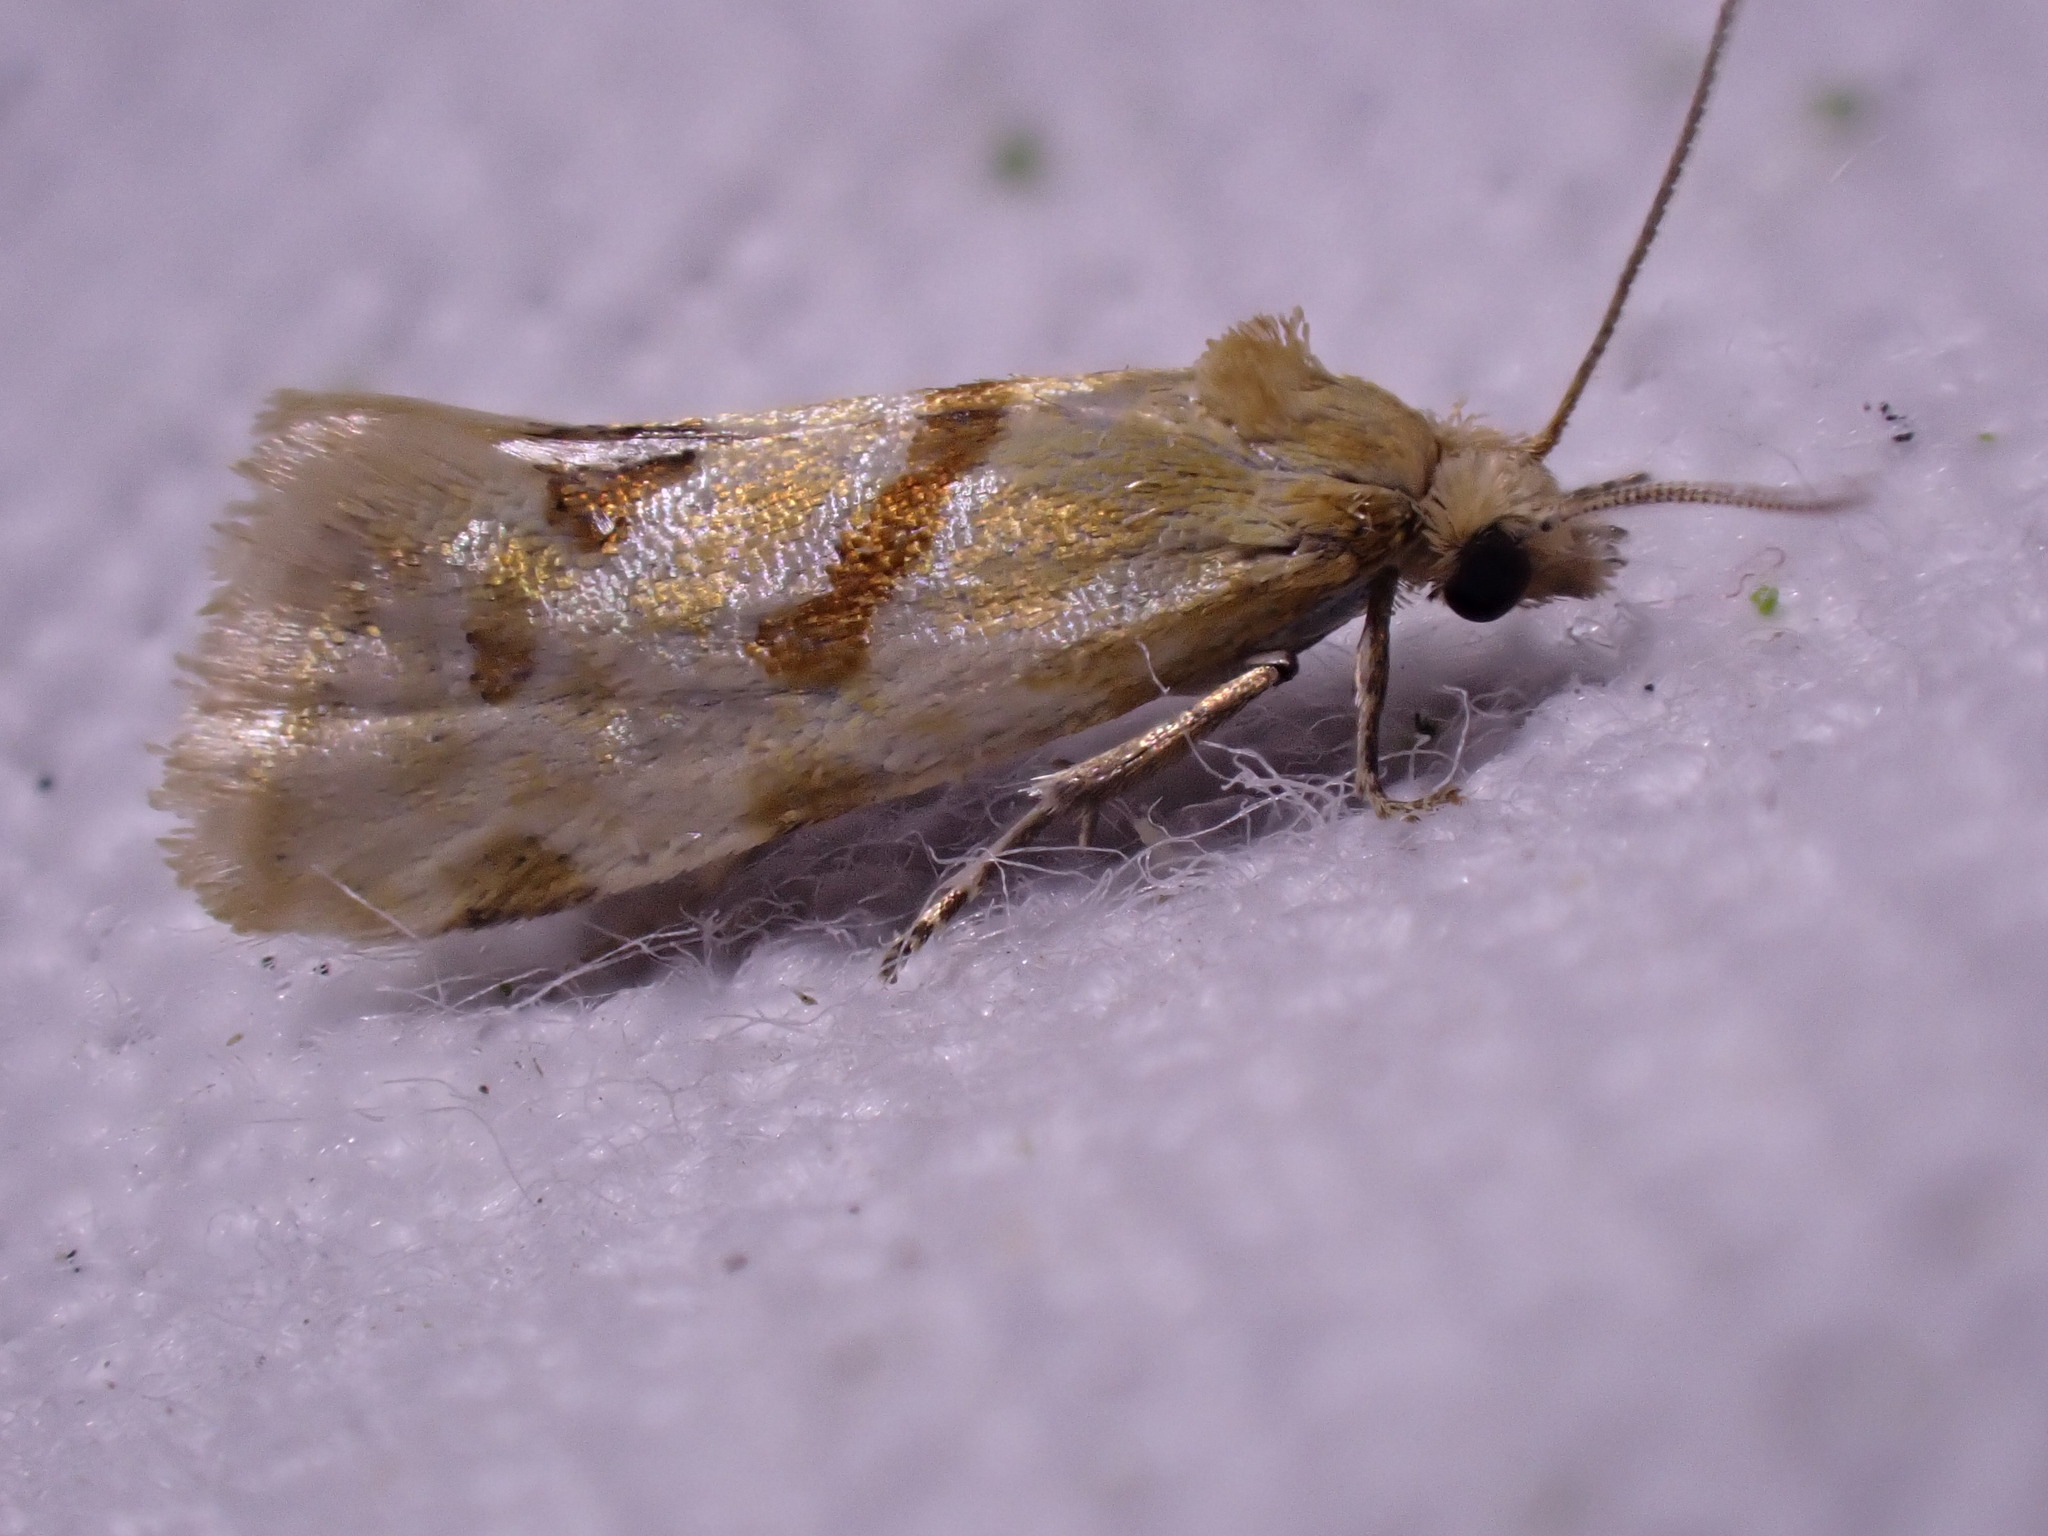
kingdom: Animalia
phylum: Arthropoda
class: Insecta
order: Lepidoptera
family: Tortricidae
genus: Aethes
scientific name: Aethes smeathmanniana
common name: Yarrow conch
